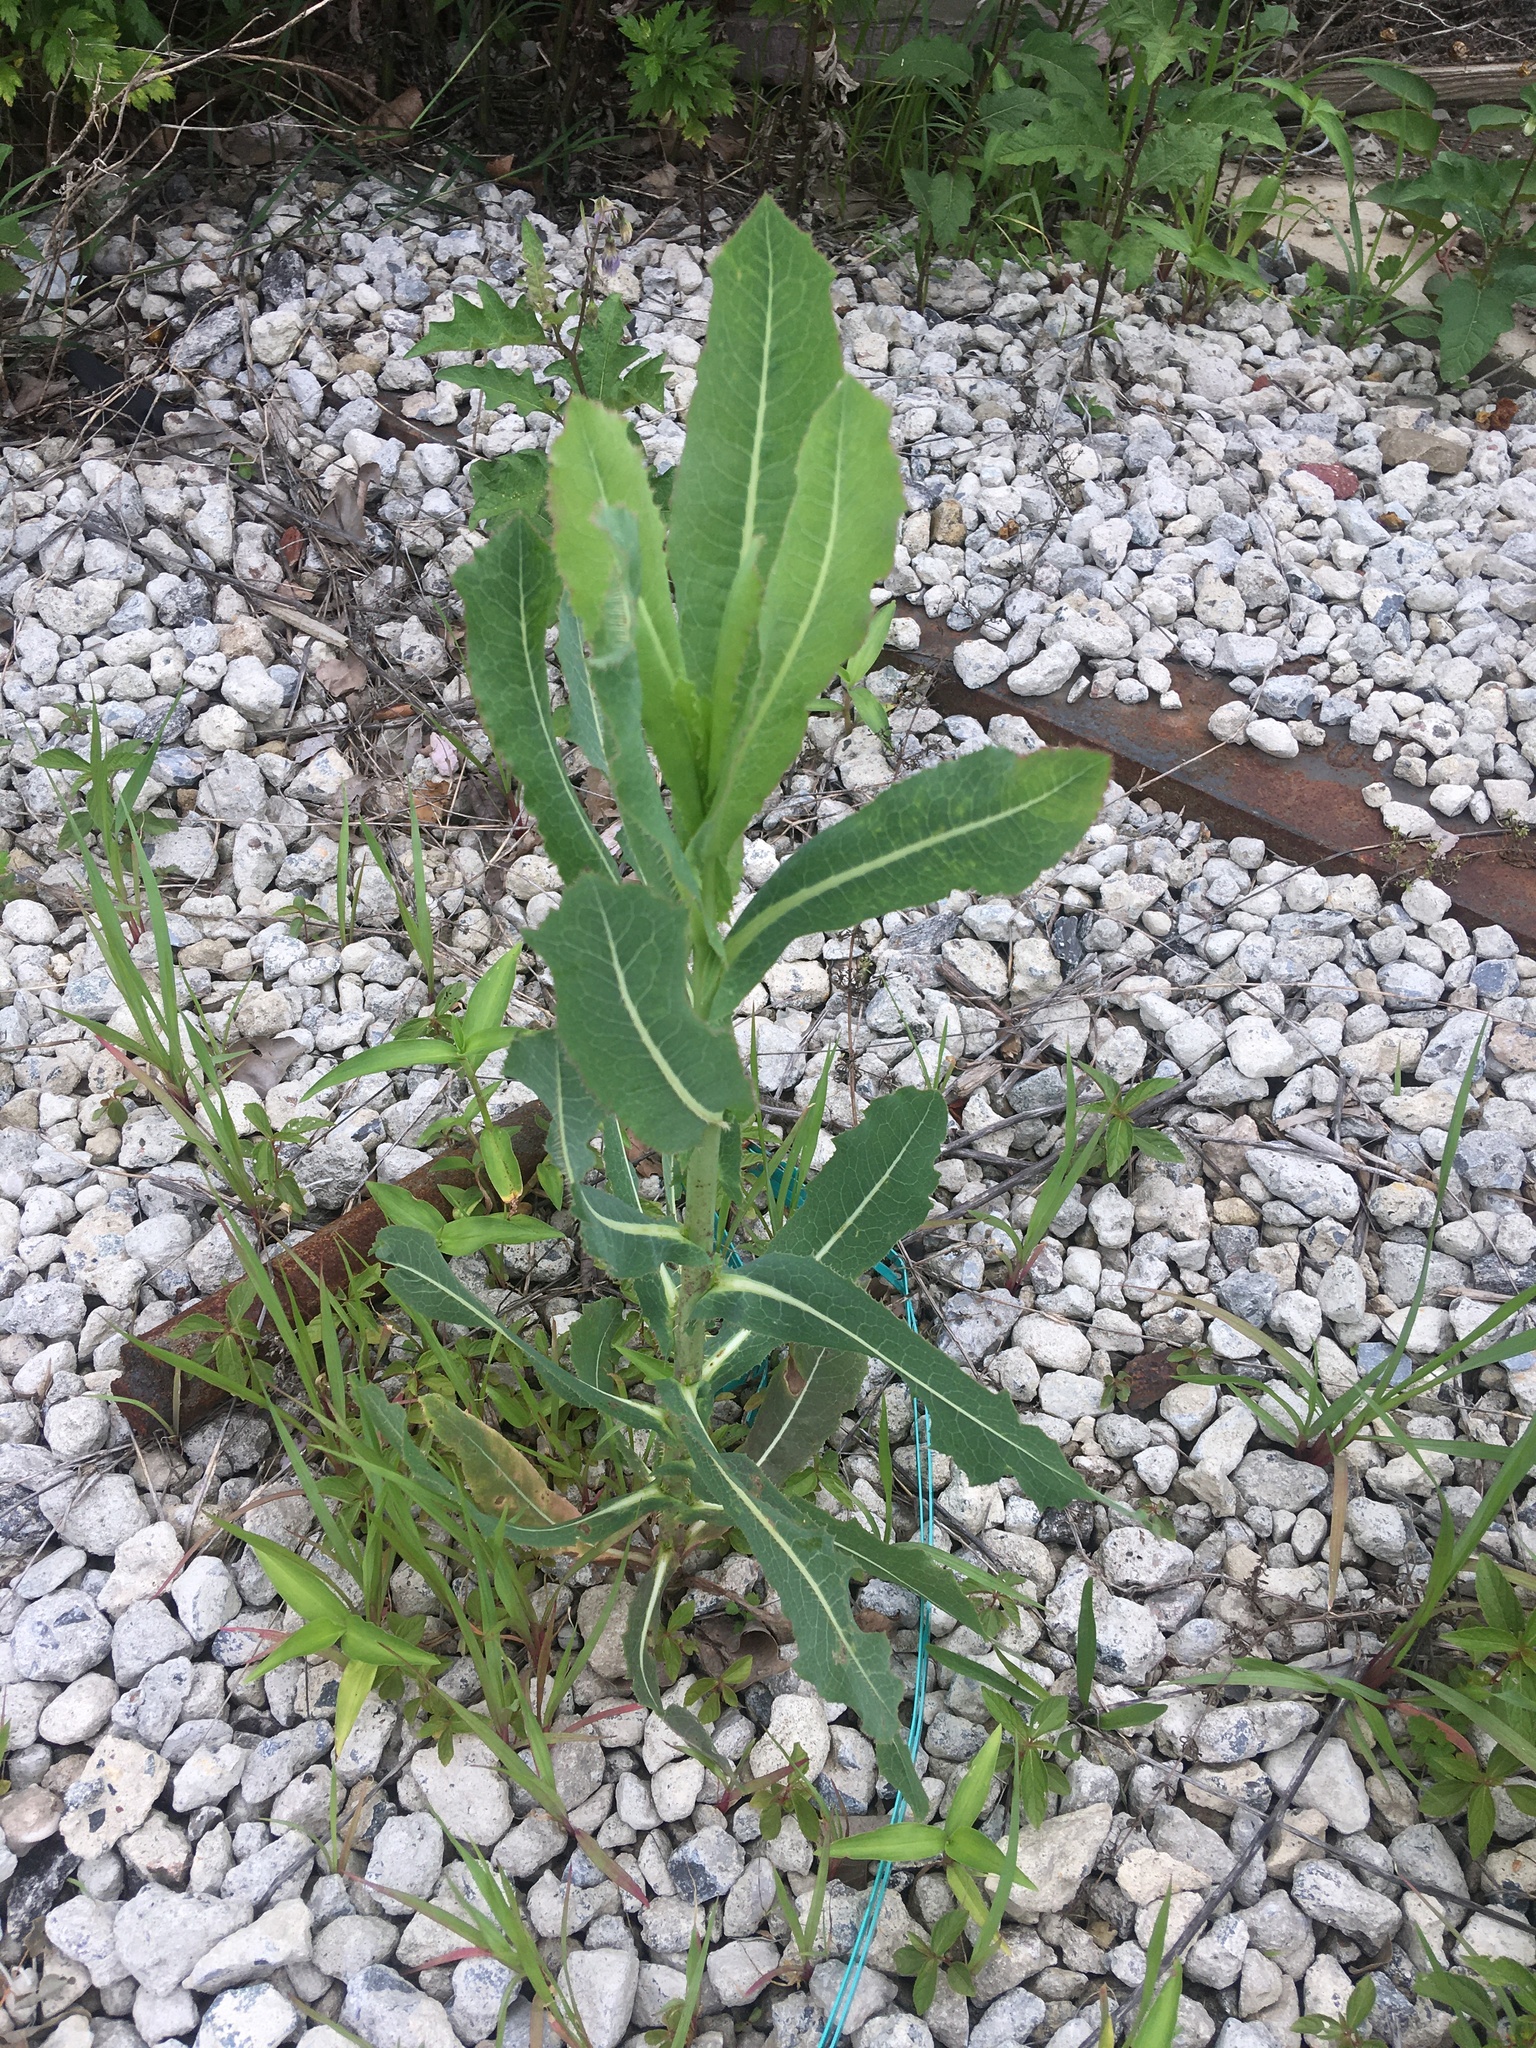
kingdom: Plantae
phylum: Tracheophyta
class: Magnoliopsida
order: Asterales
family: Asteraceae
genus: Lactuca
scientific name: Lactuca serriola
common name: Prickly lettuce
